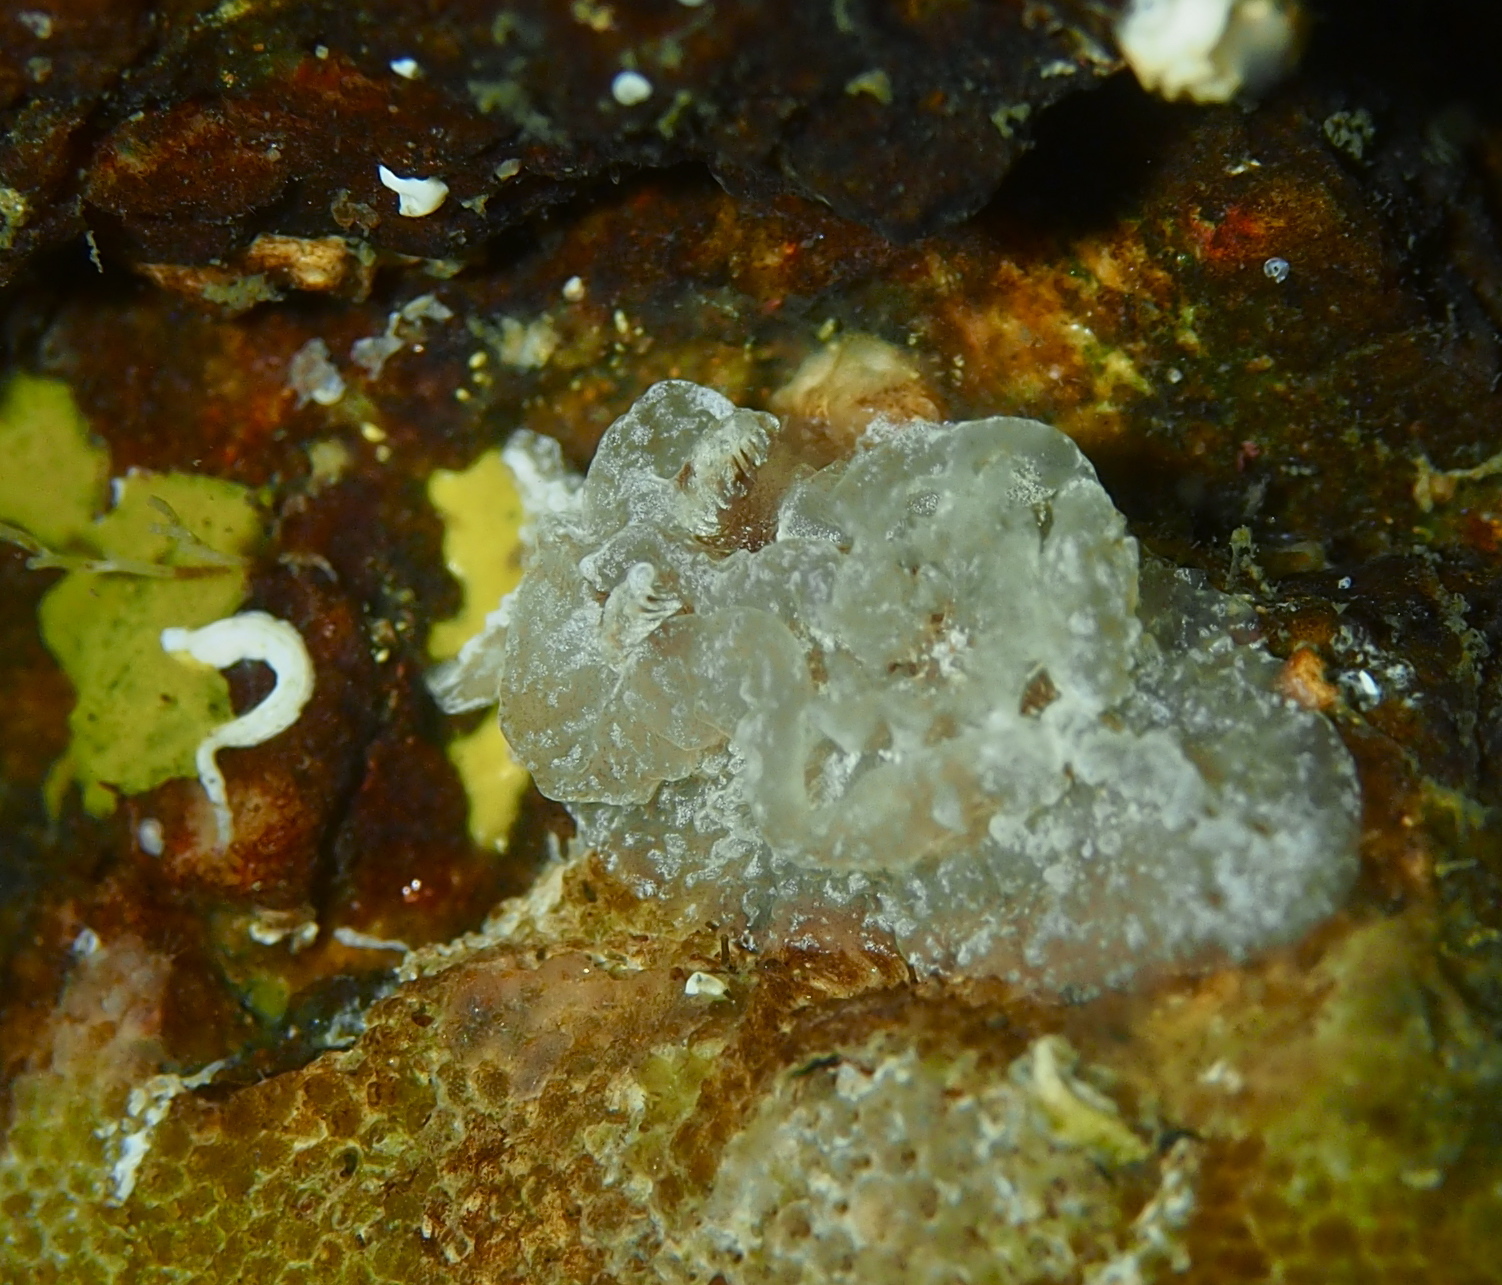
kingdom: Animalia
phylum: Mollusca
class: Gastropoda
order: Nudibranchia
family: Goniodorididae
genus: Pelagella
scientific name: Pelagella castanea
